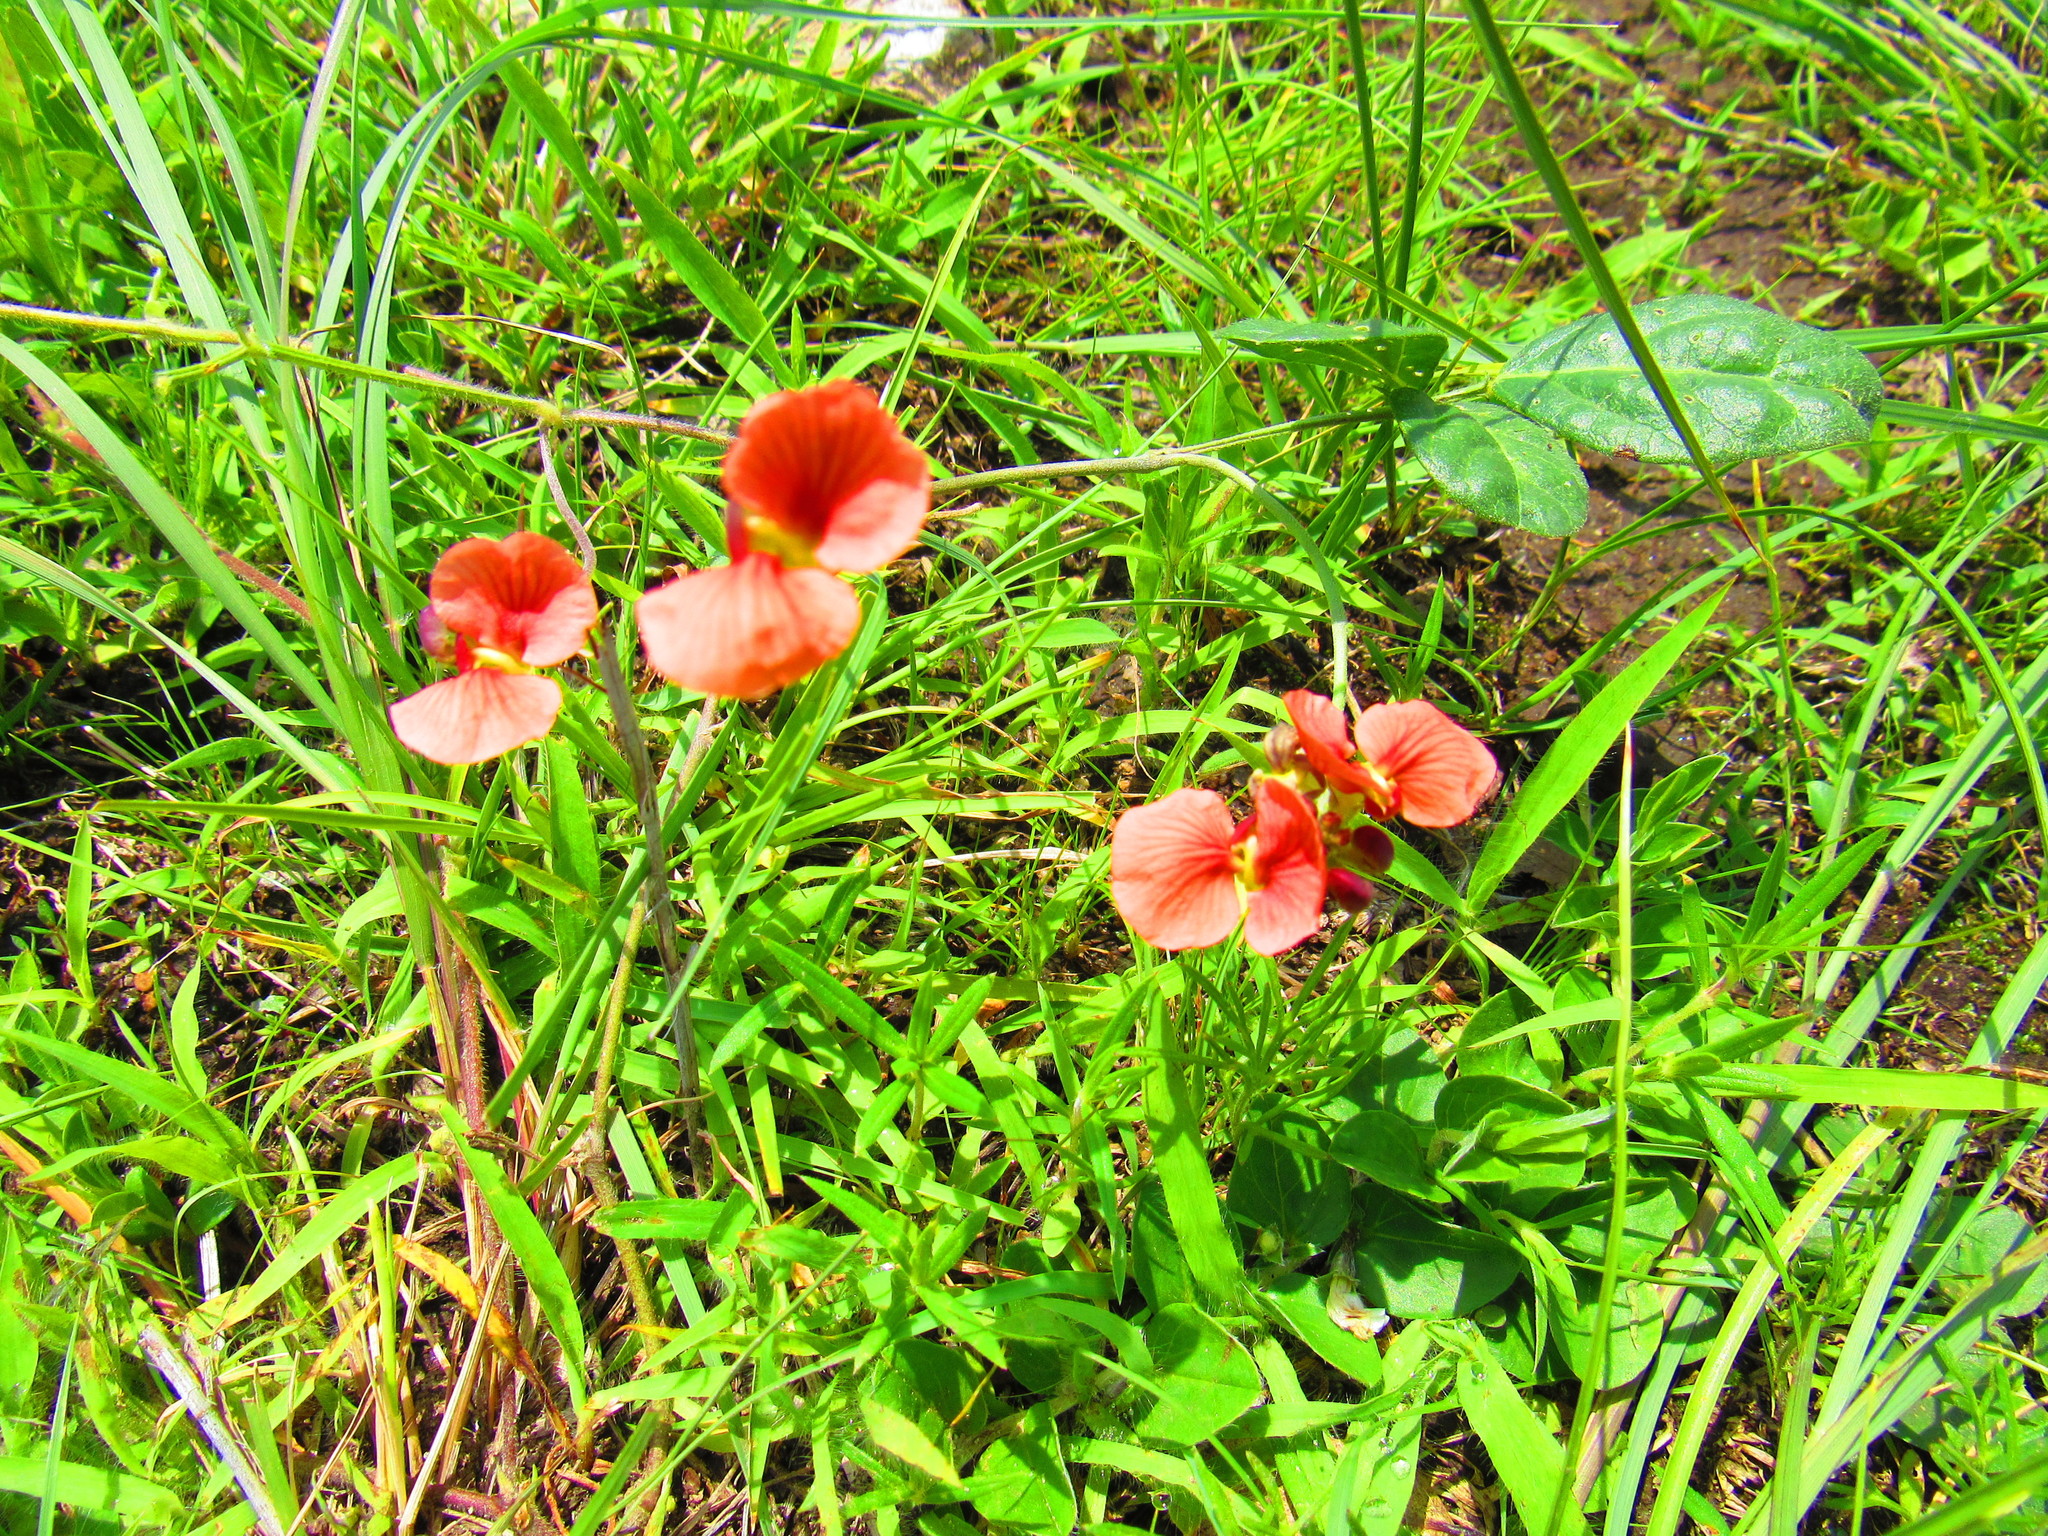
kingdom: Plantae
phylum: Tracheophyta
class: Magnoliopsida
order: Fabales
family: Fabaceae
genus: Macroptilium
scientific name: Macroptilium gibbosifolium
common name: Variableleaf bushbean
